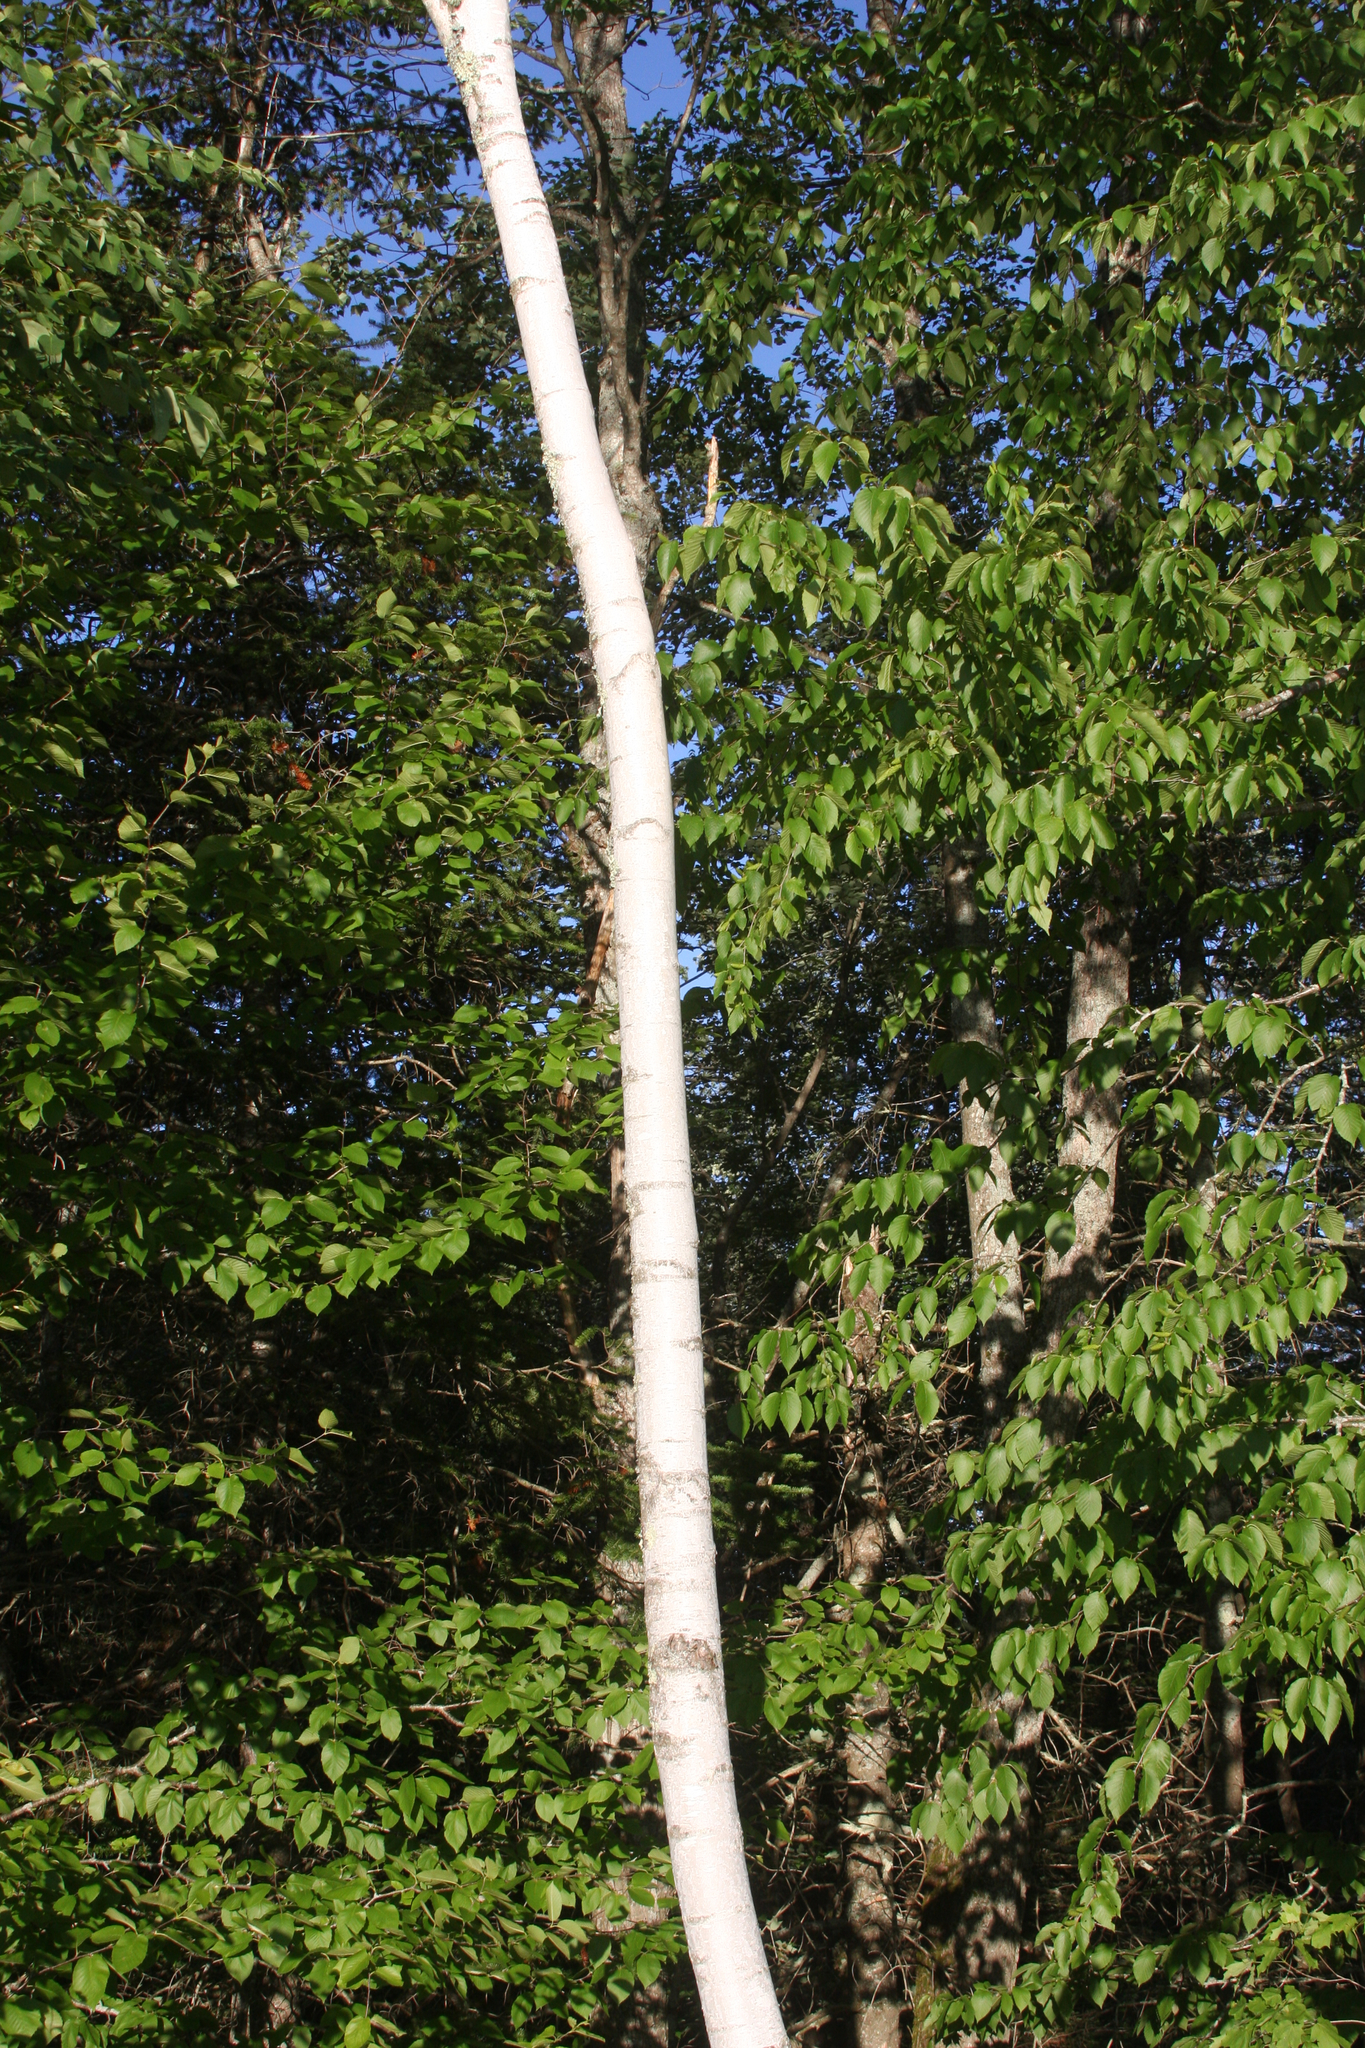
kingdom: Plantae
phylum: Tracheophyta
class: Magnoliopsida
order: Fagales
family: Betulaceae
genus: Betula
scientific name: Betula populifolia
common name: Fire birch
